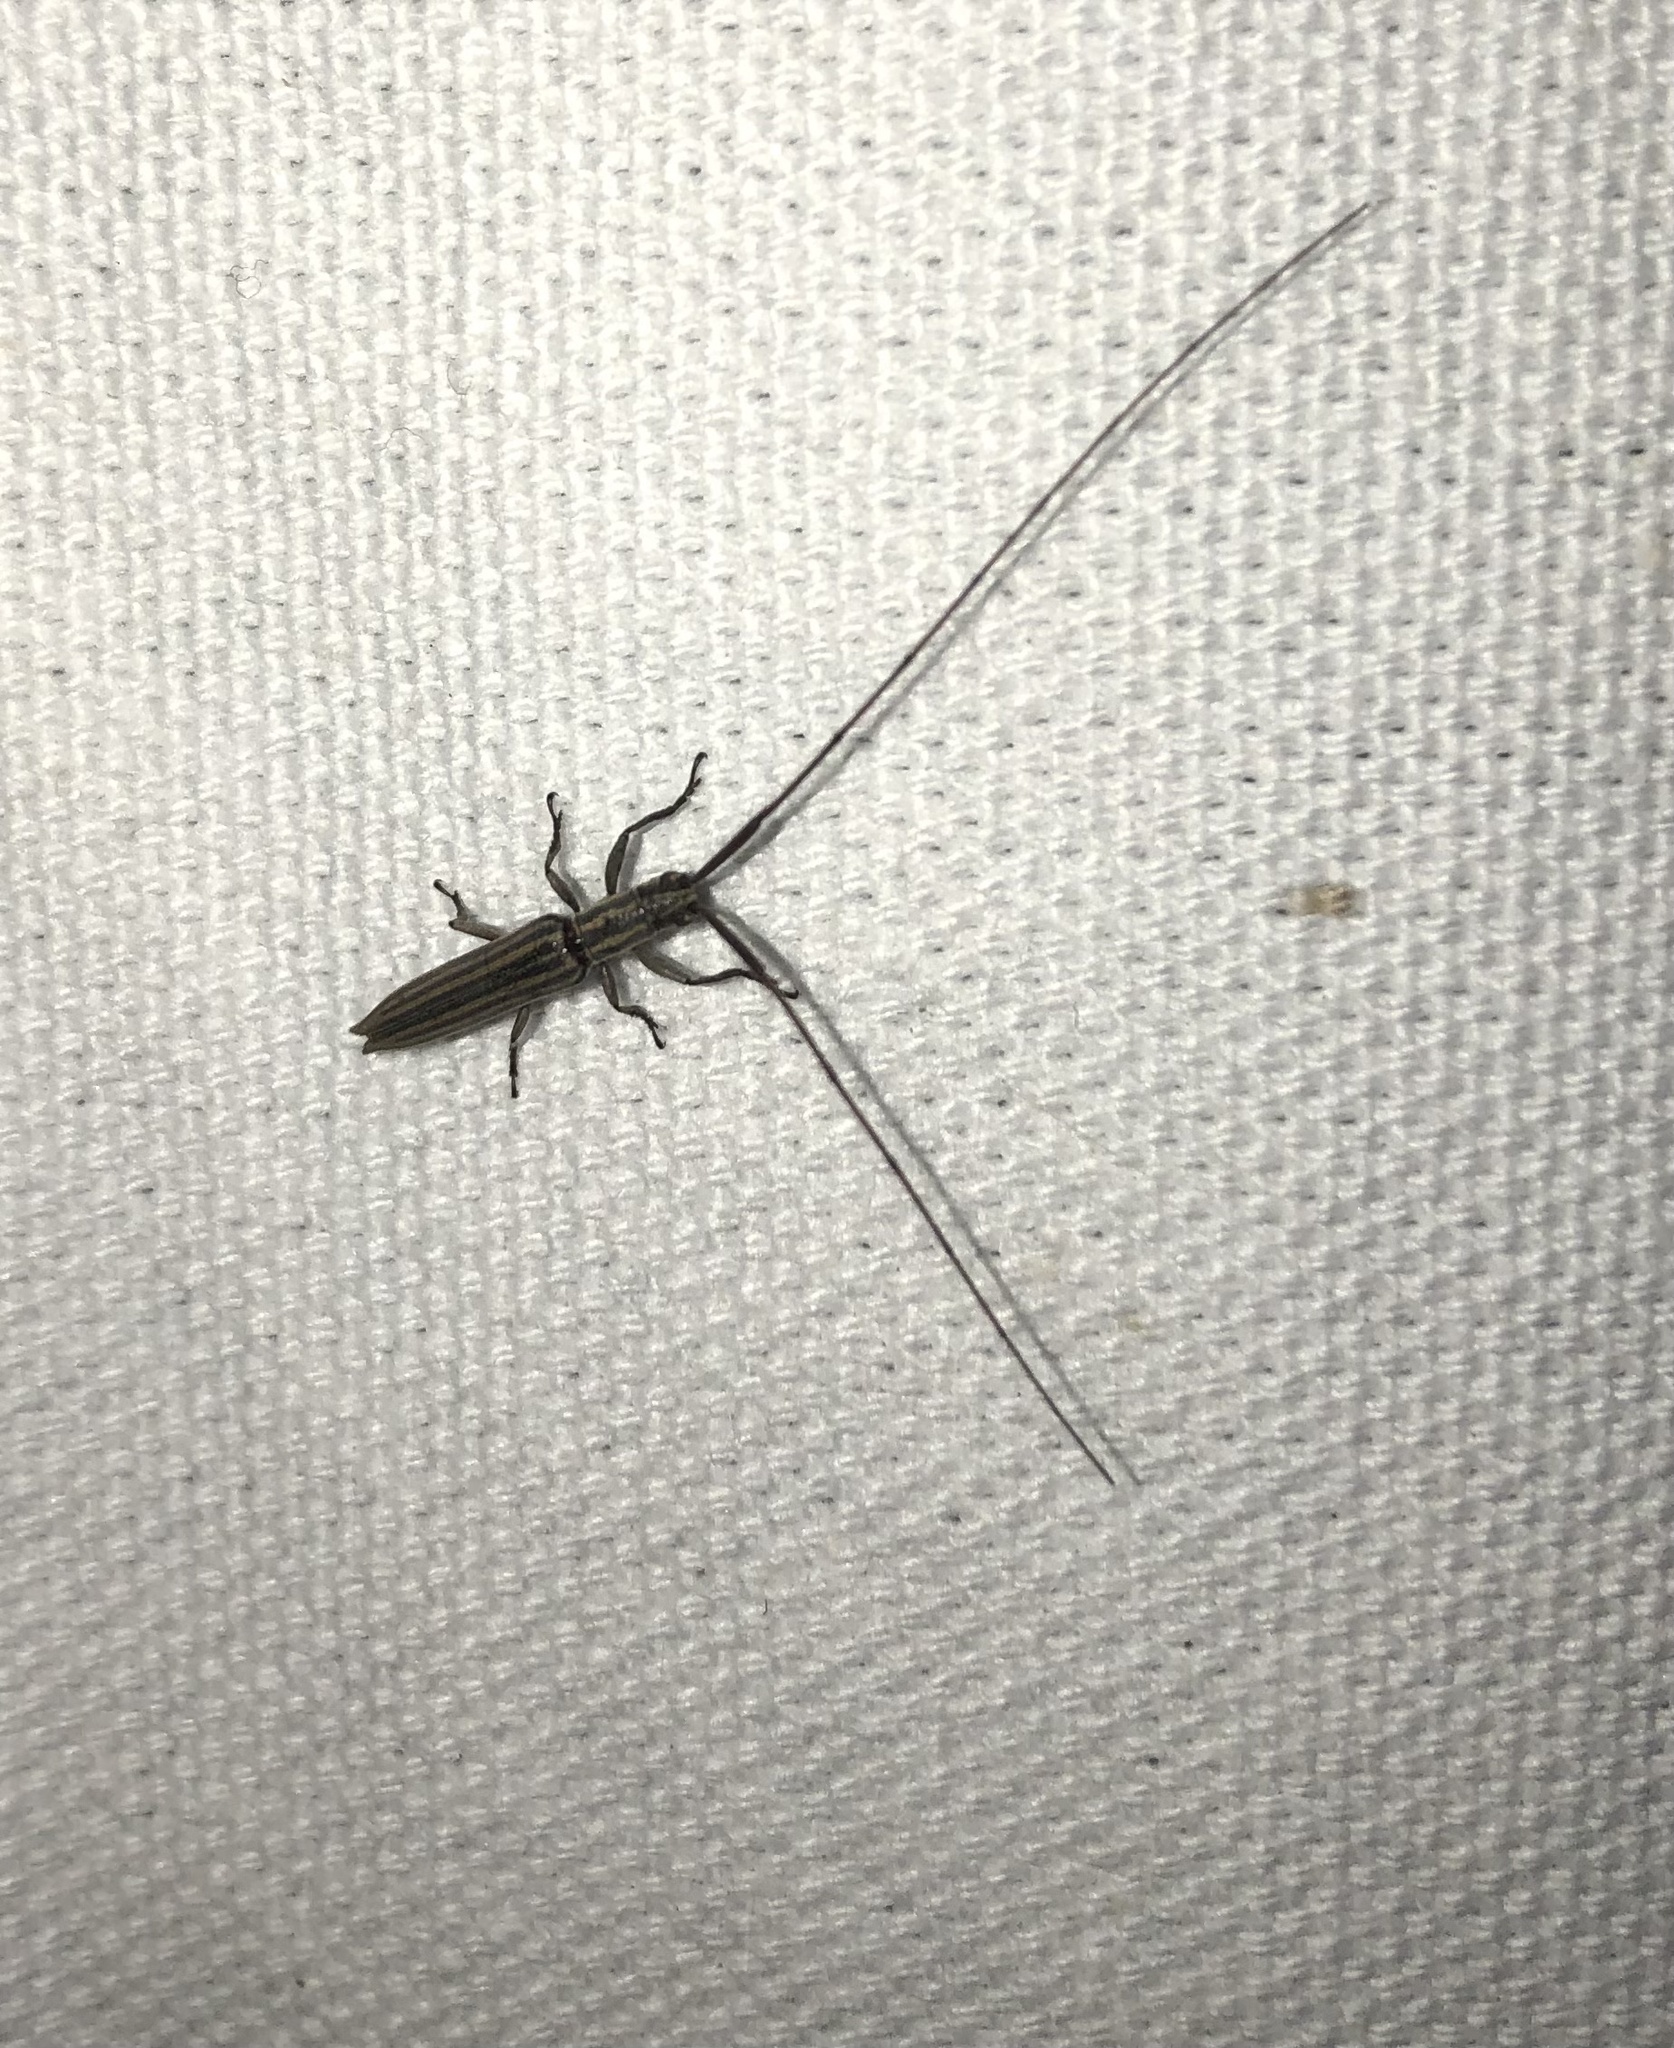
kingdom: Animalia
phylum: Arthropoda
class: Insecta
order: Coleoptera
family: Cerambycidae
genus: Hippopsis
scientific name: Hippopsis
